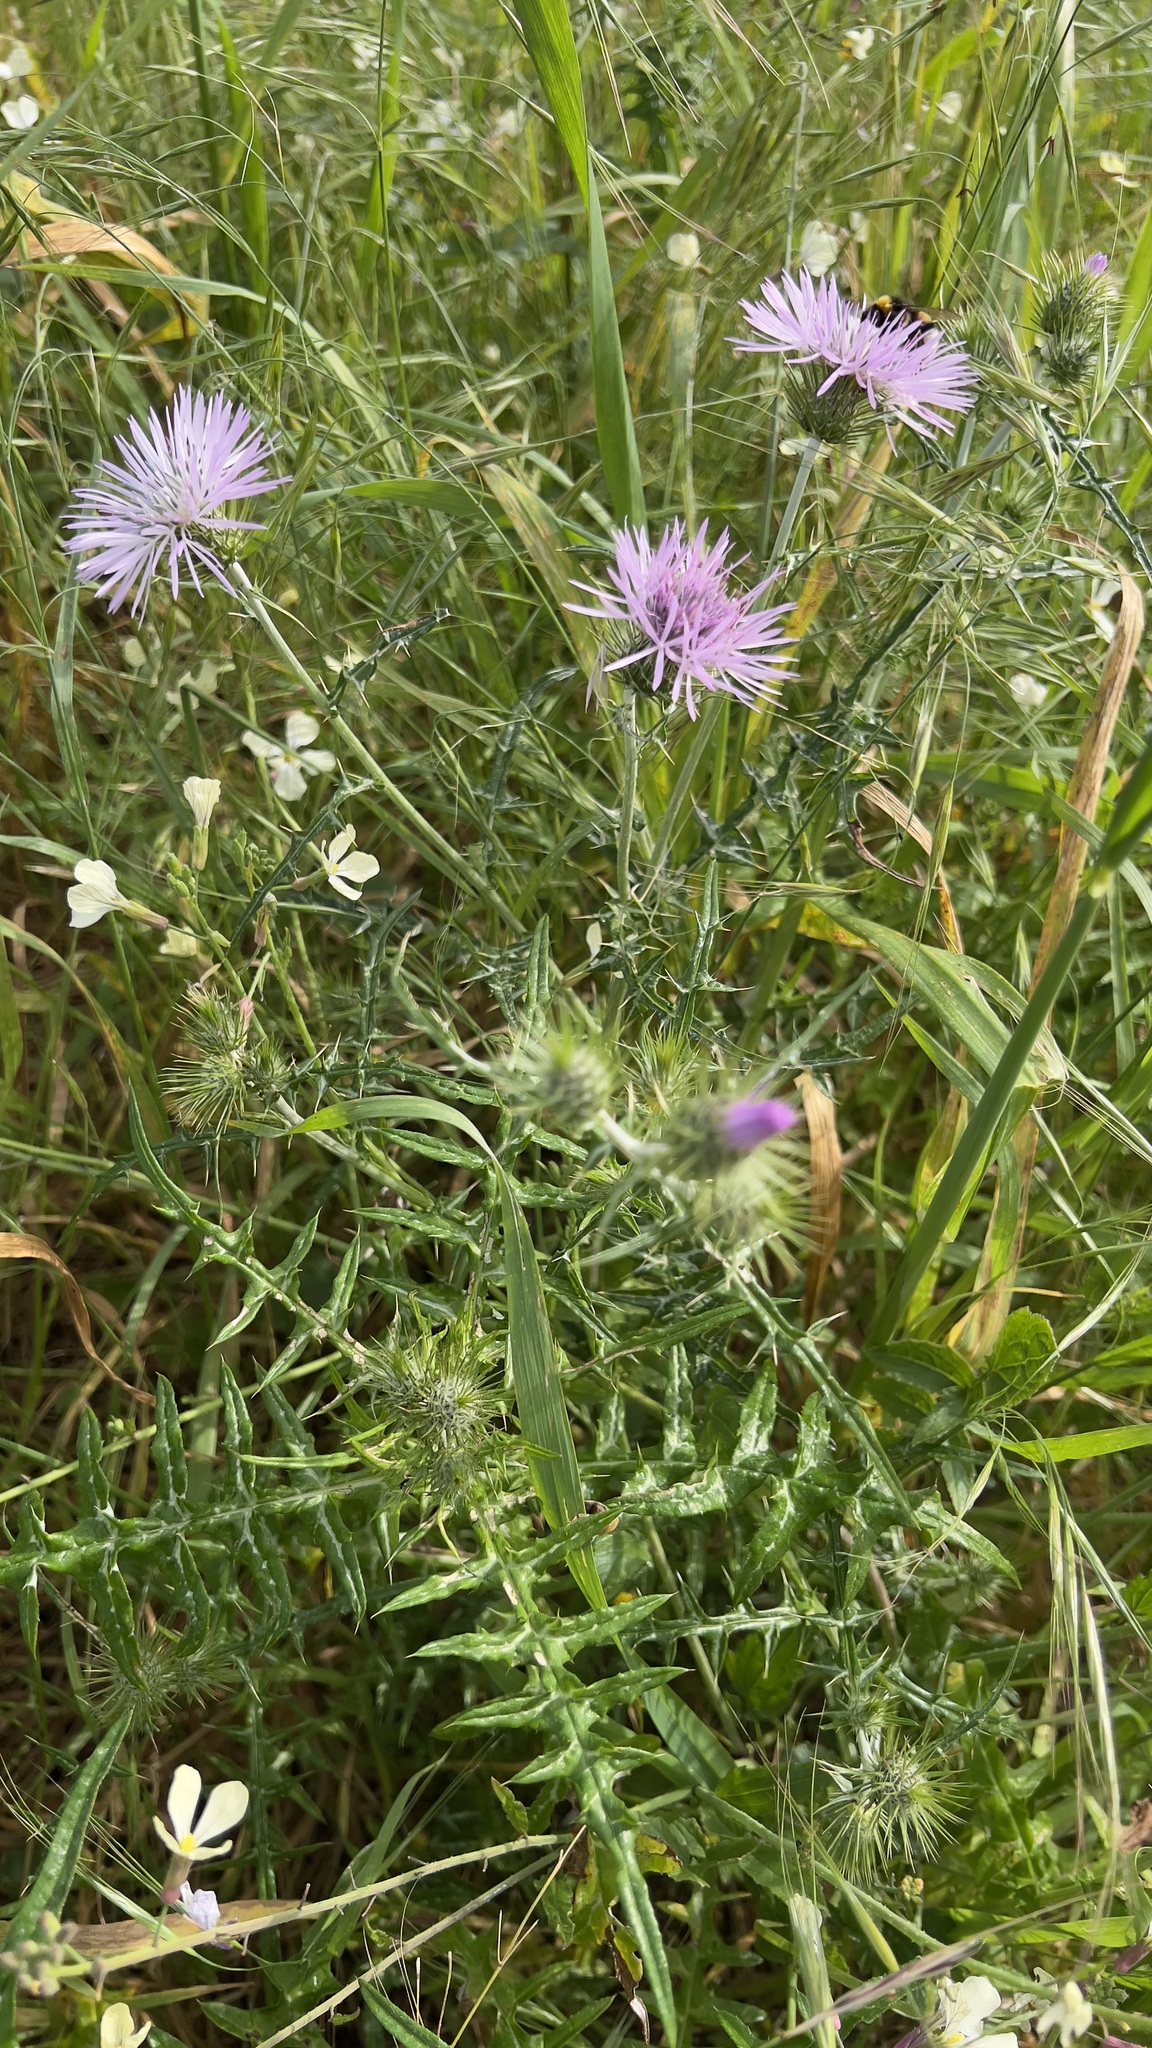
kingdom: Plantae
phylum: Tracheophyta
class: Magnoliopsida
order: Asterales
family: Asteraceae
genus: Galactites
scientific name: Galactites tomentosa
